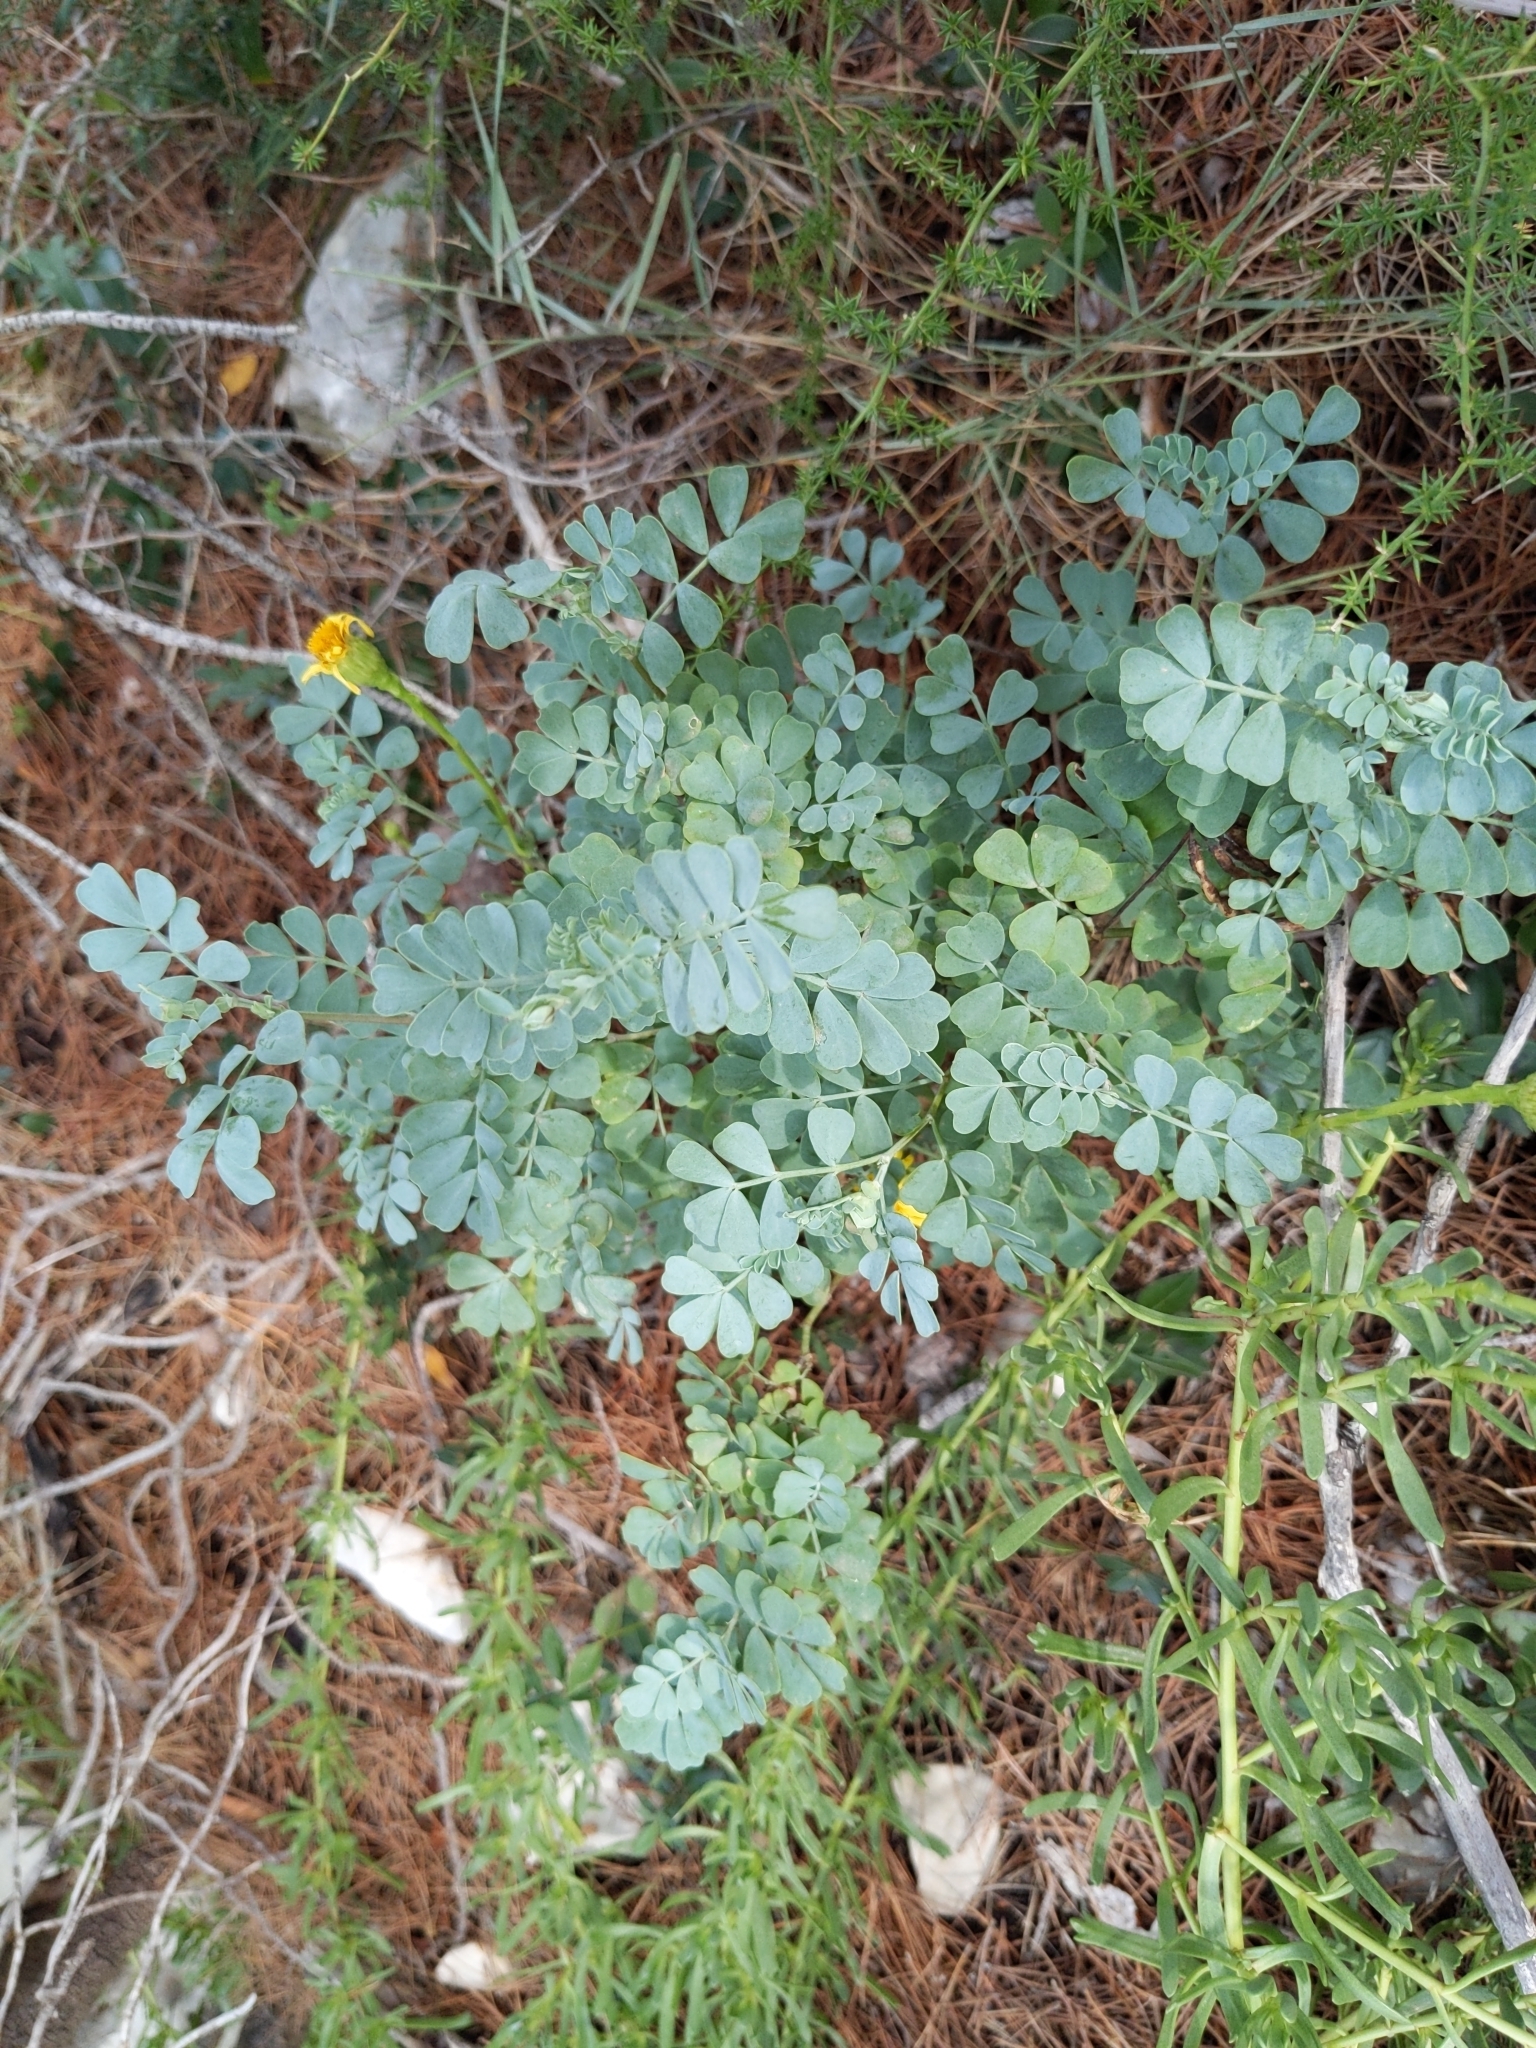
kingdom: Plantae
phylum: Tracheophyta
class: Magnoliopsida
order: Fabales
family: Fabaceae
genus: Coronilla
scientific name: Coronilla valentina
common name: Shrubby scorpion-vetch
